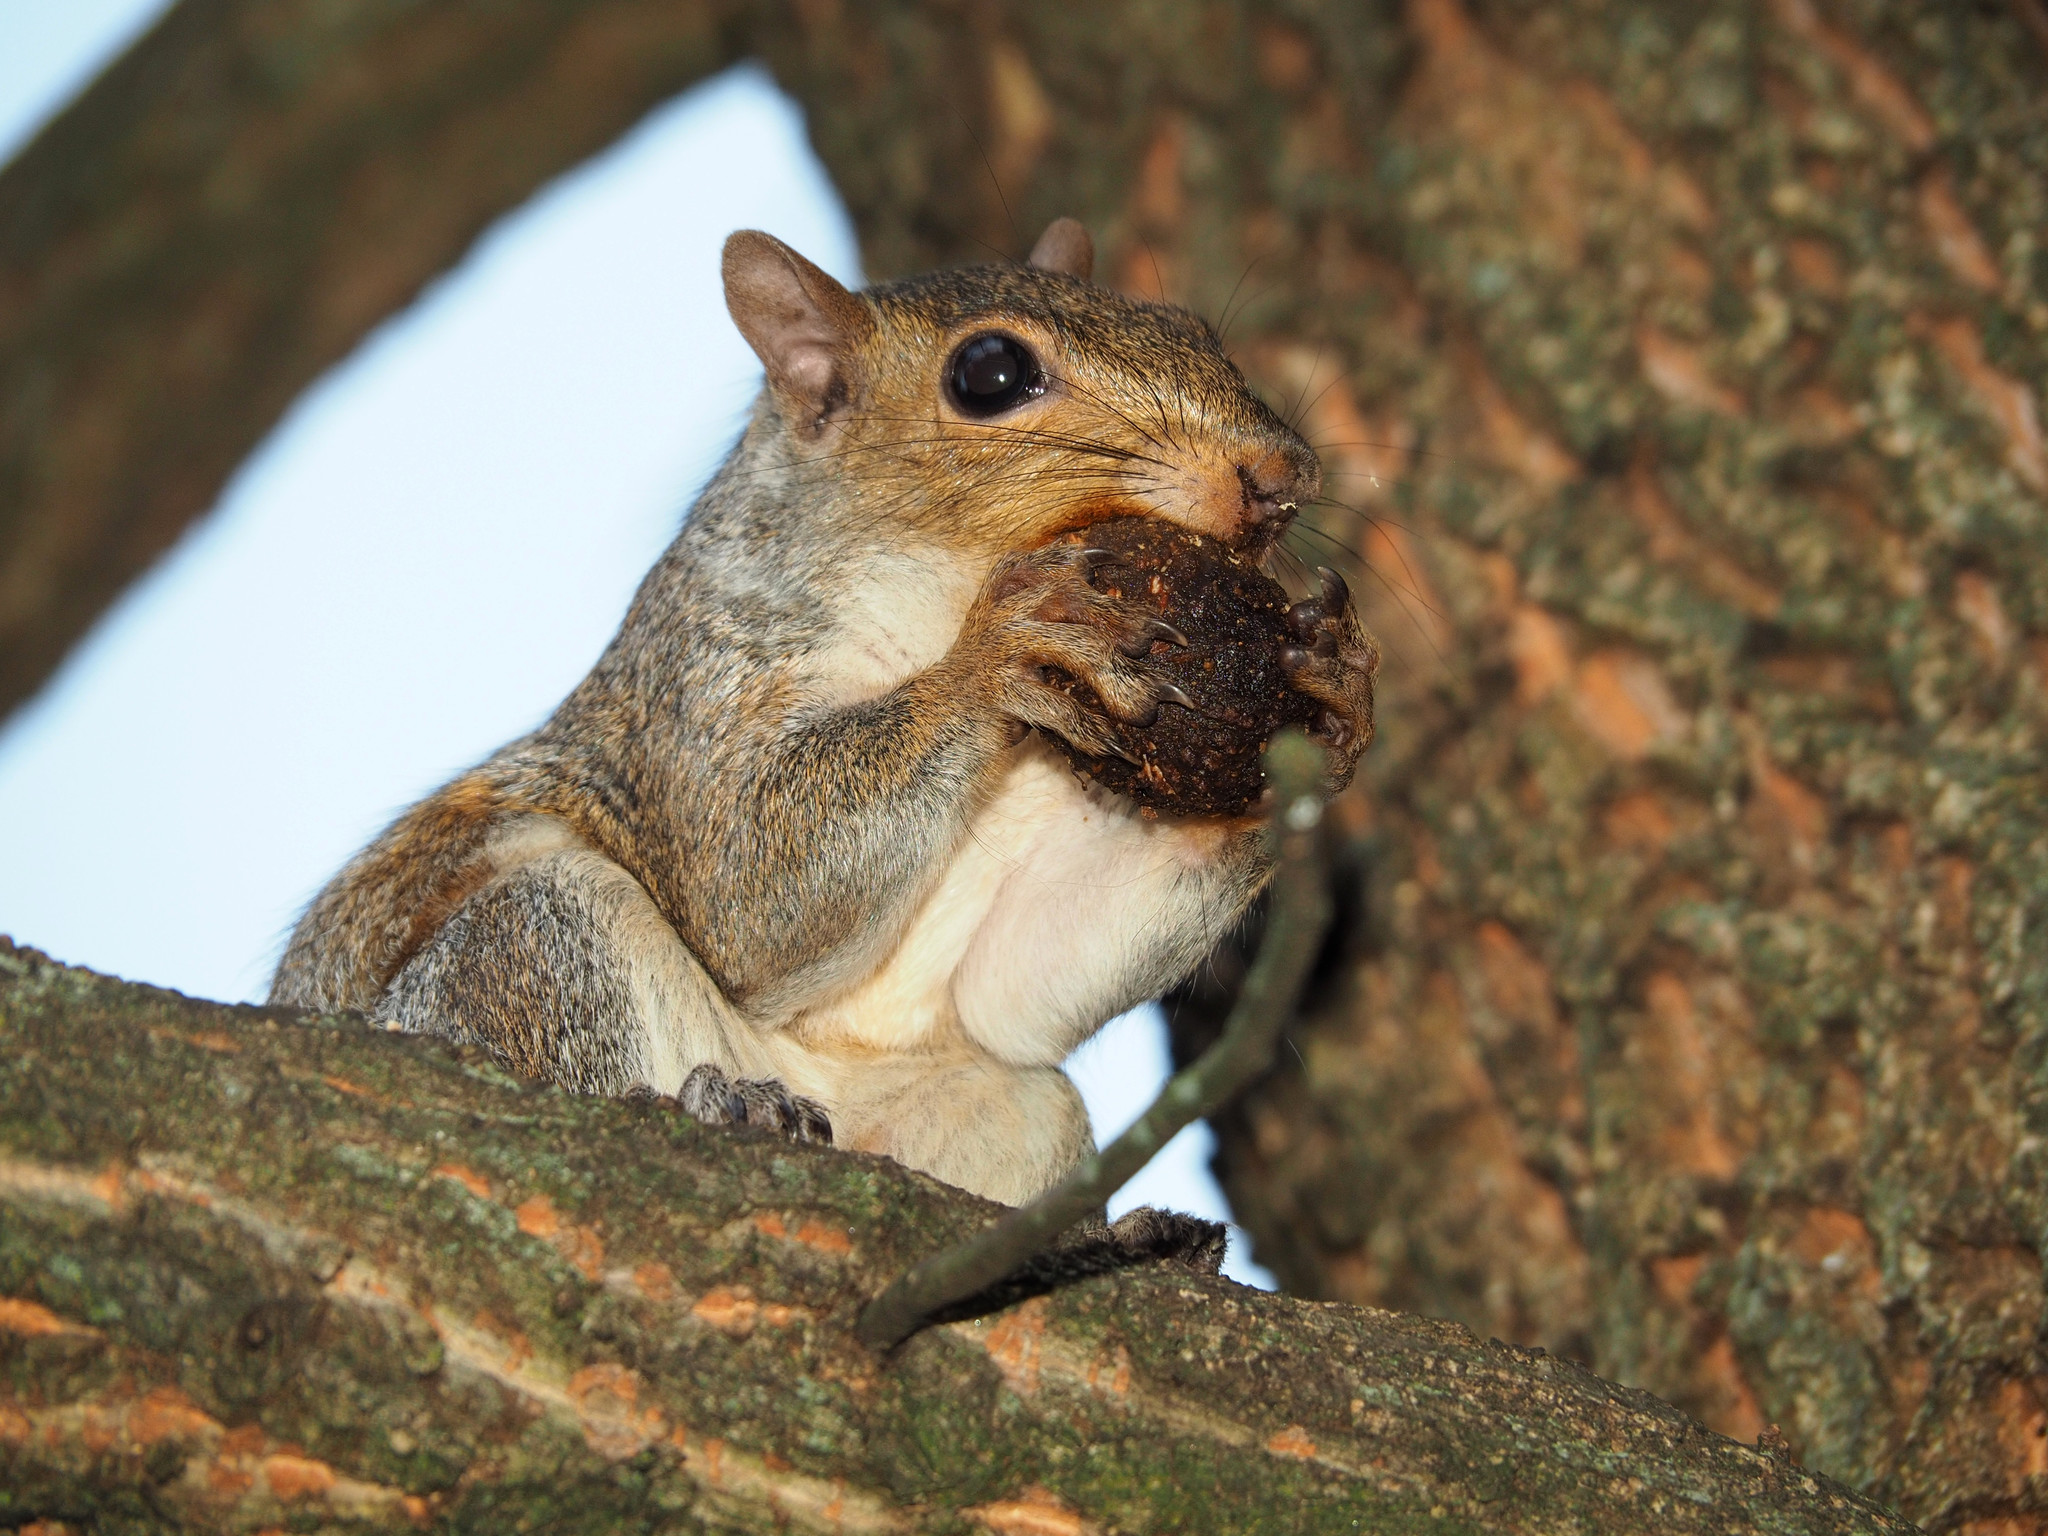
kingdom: Animalia
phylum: Chordata
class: Mammalia
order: Rodentia
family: Sciuridae
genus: Sciurus
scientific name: Sciurus carolinensis
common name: Eastern gray squirrel
